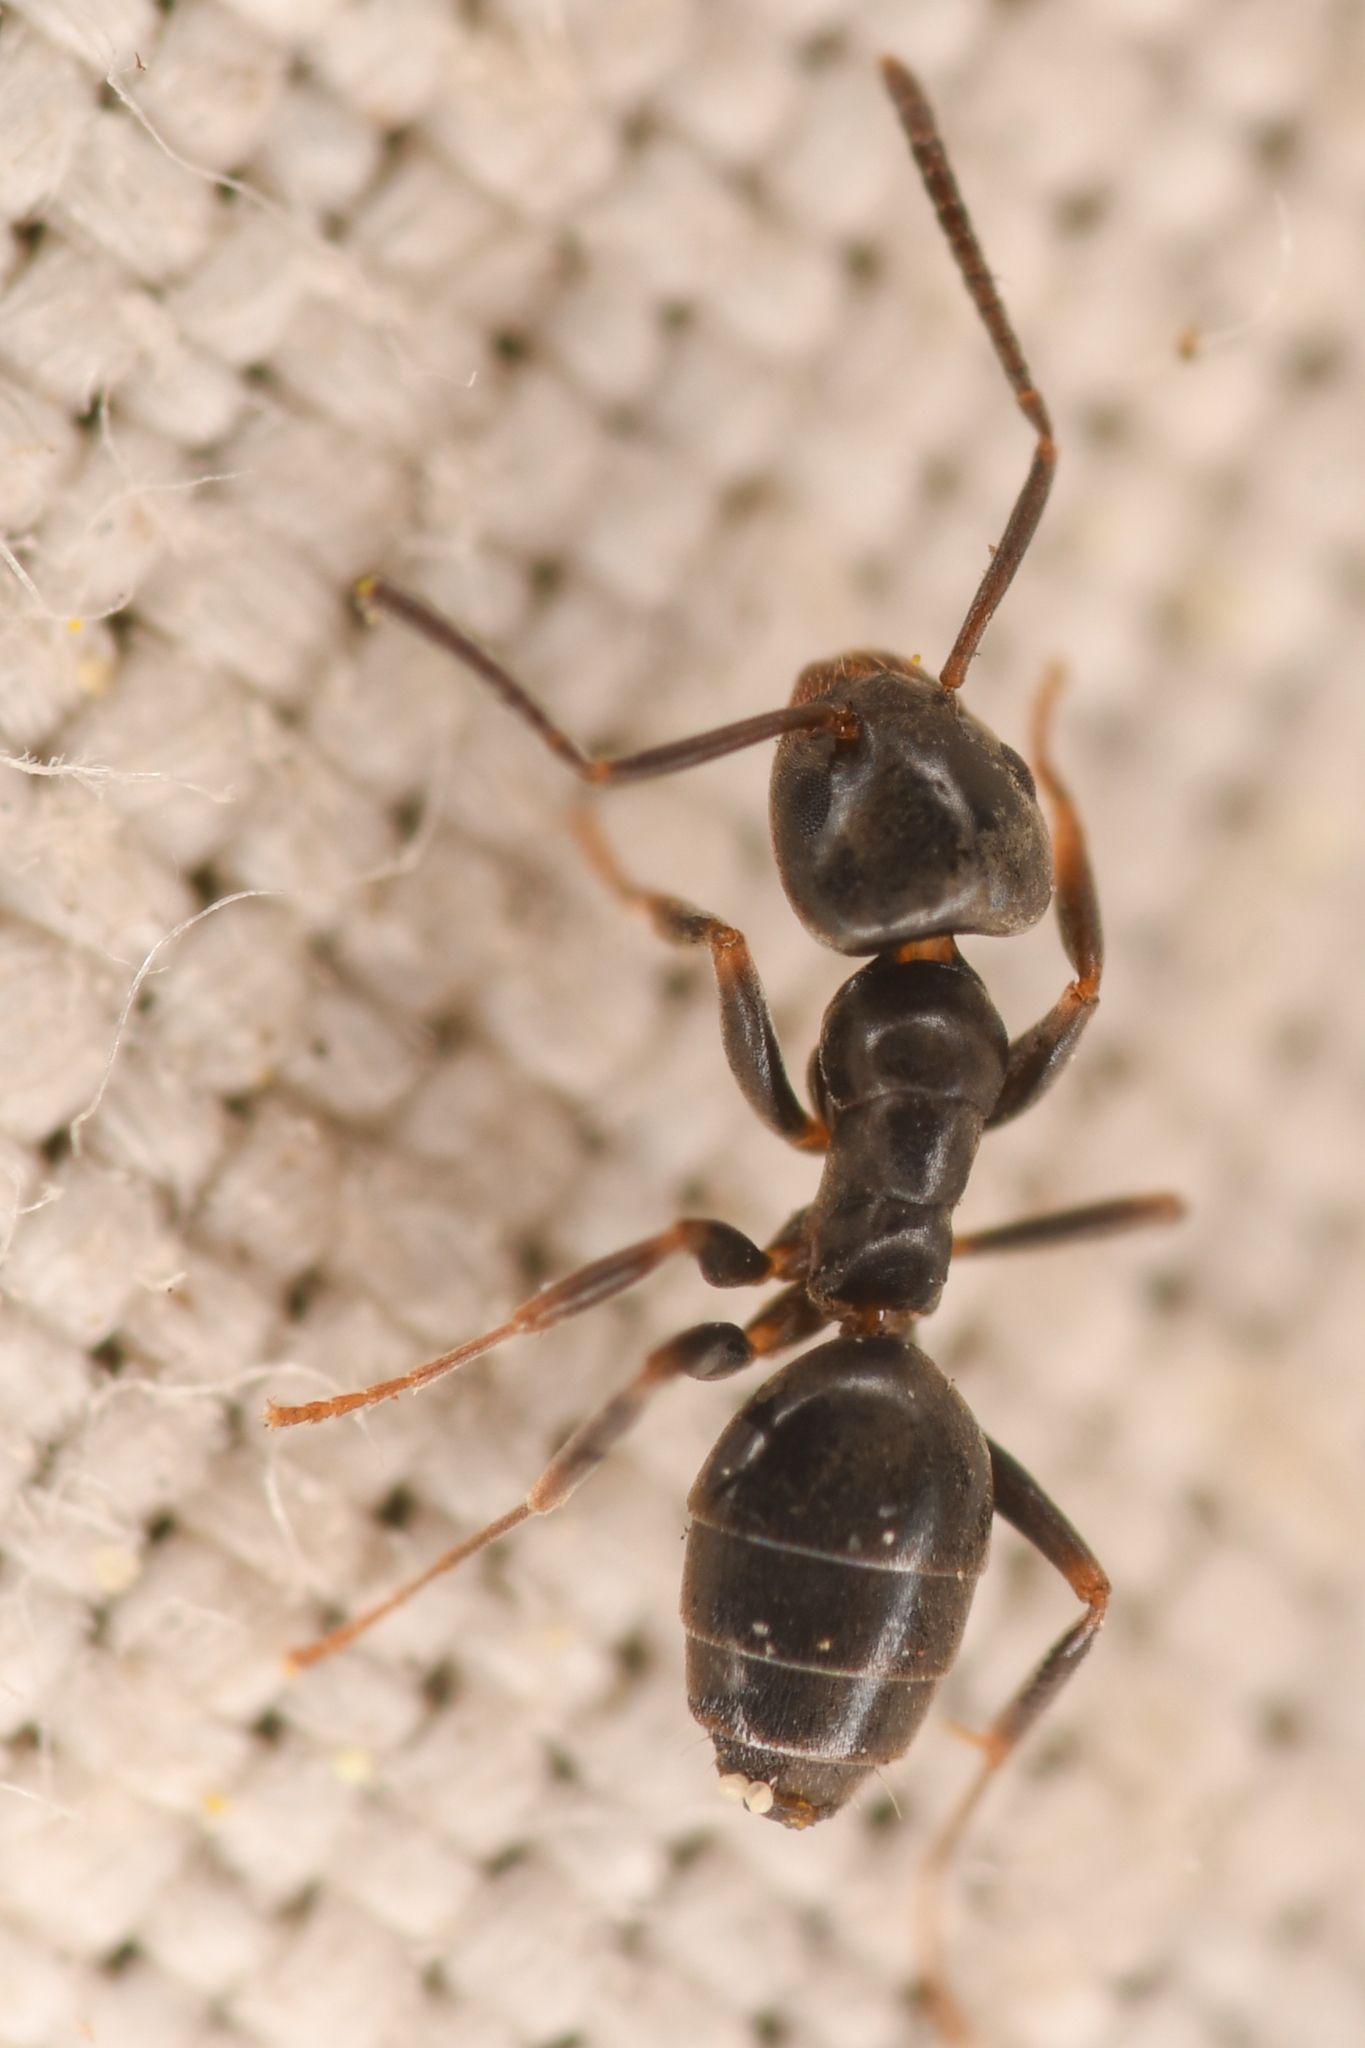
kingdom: Animalia
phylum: Arthropoda
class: Insecta
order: Hymenoptera
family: Formicidae
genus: Tapinoma
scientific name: Tapinoma sessile
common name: Odorous house ant
